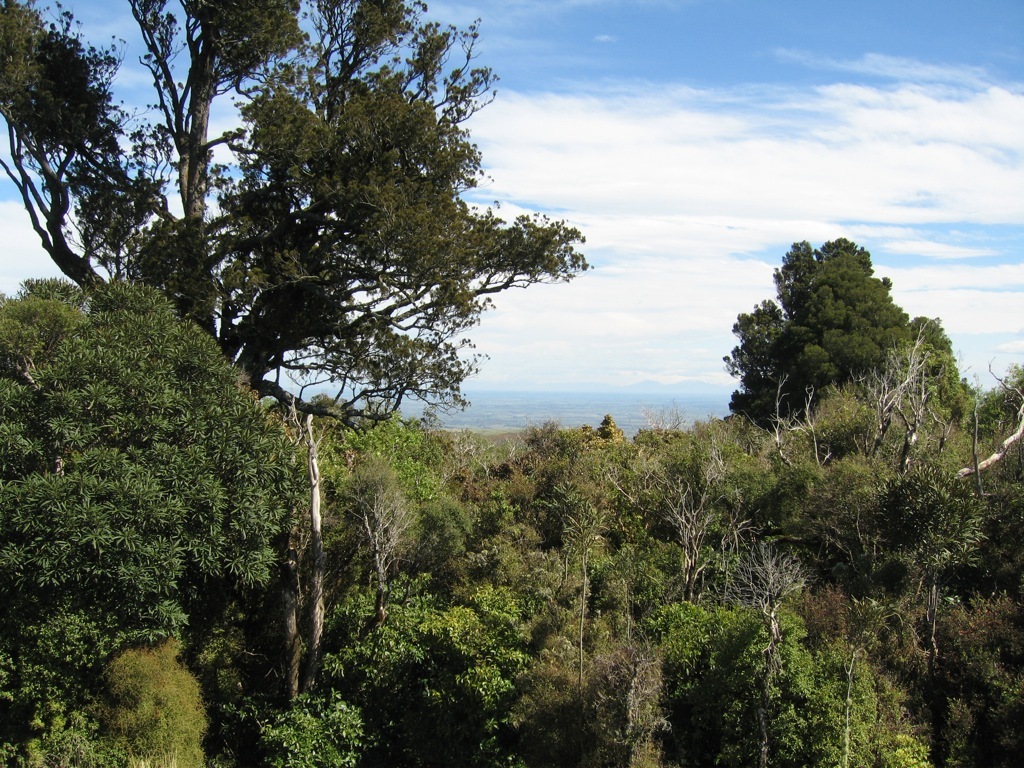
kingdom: Plantae
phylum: Tracheophyta
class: Pinopsida
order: Pinales
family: Podocarpaceae
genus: Prumnopitys
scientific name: Prumnopitys taxifolia
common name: Matai
